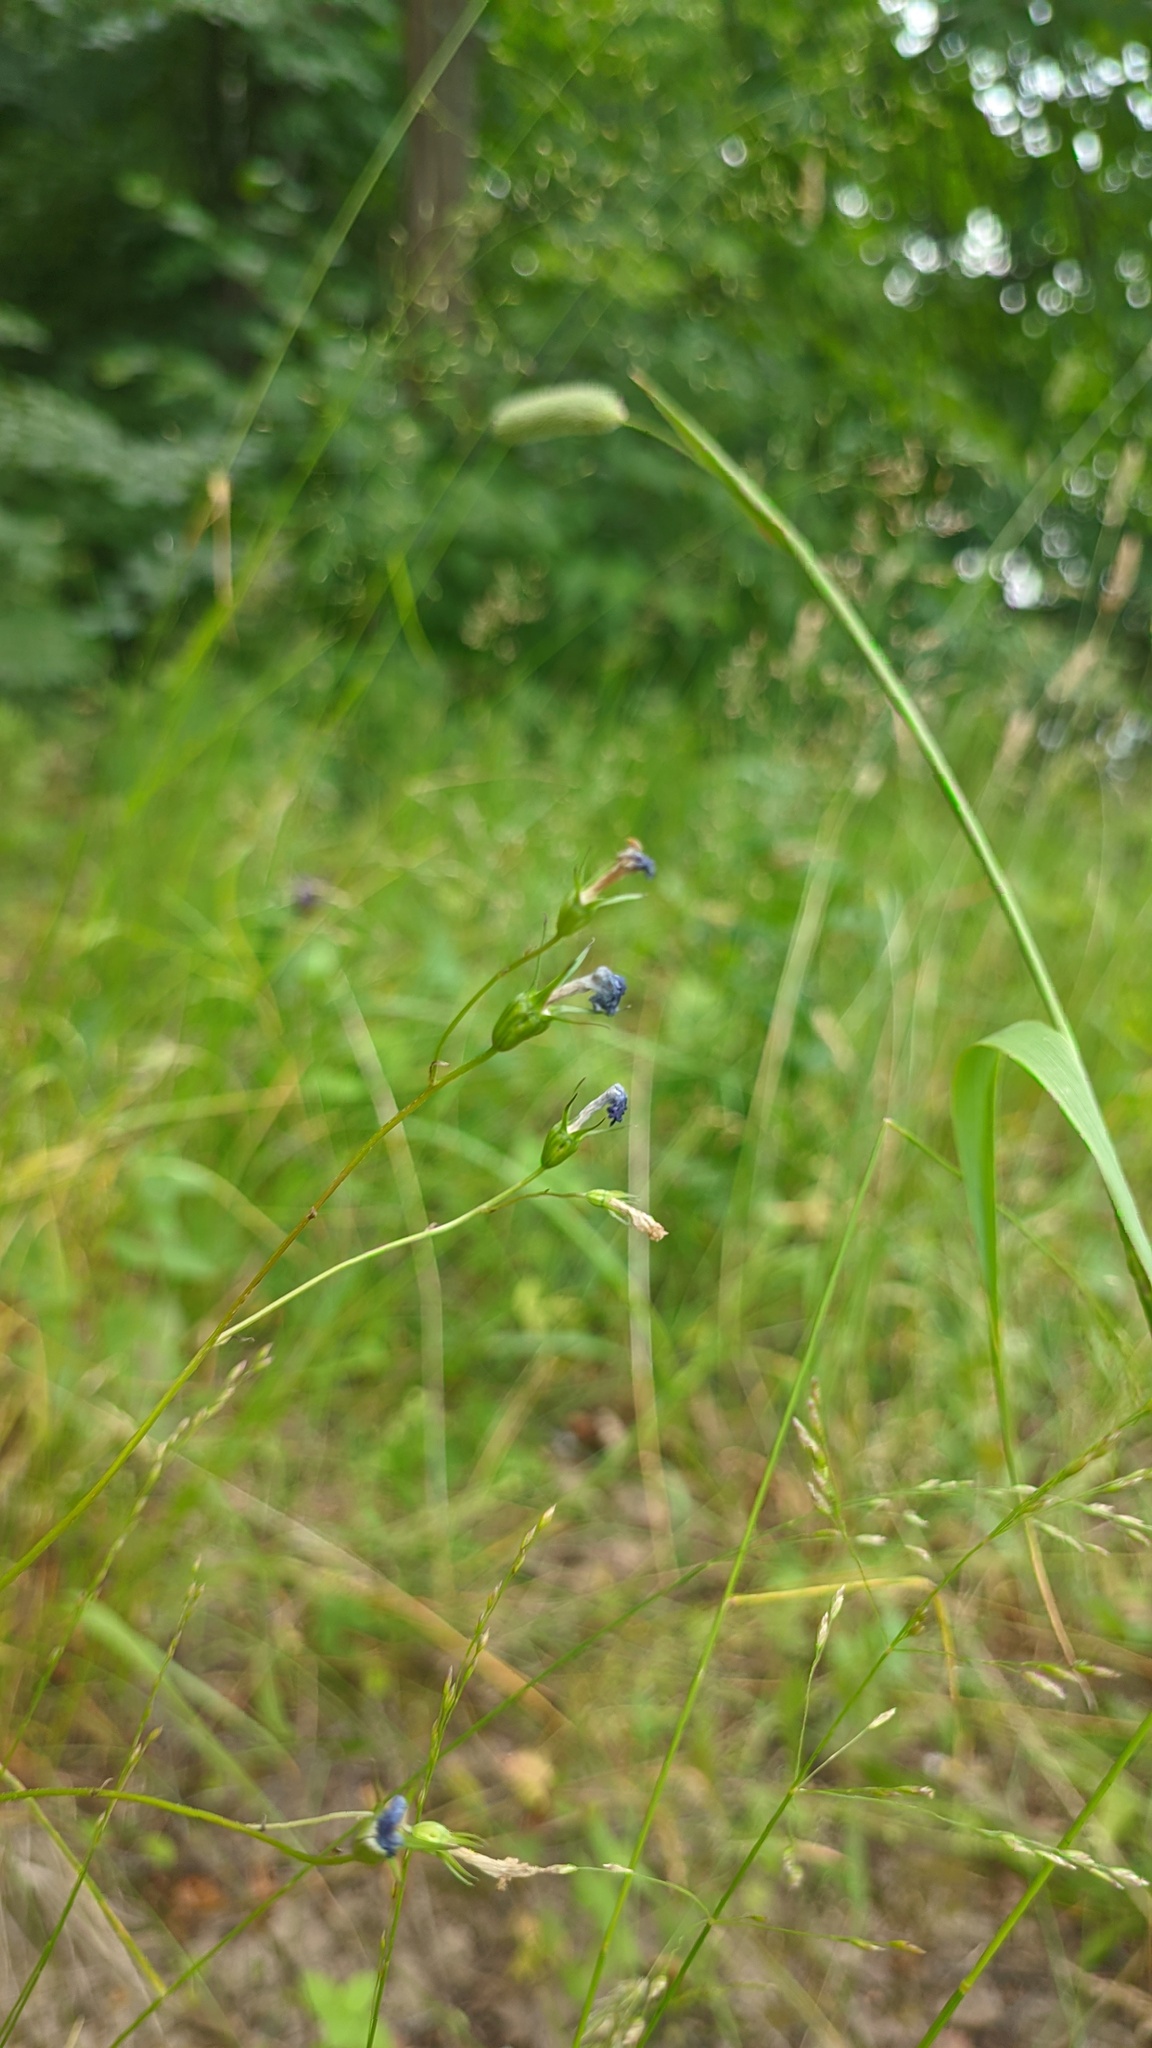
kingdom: Plantae
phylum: Tracheophyta
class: Magnoliopsida
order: Asterales
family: Campanulaceae
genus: Campanula
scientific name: Campanula patula
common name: Spreading bellflower
